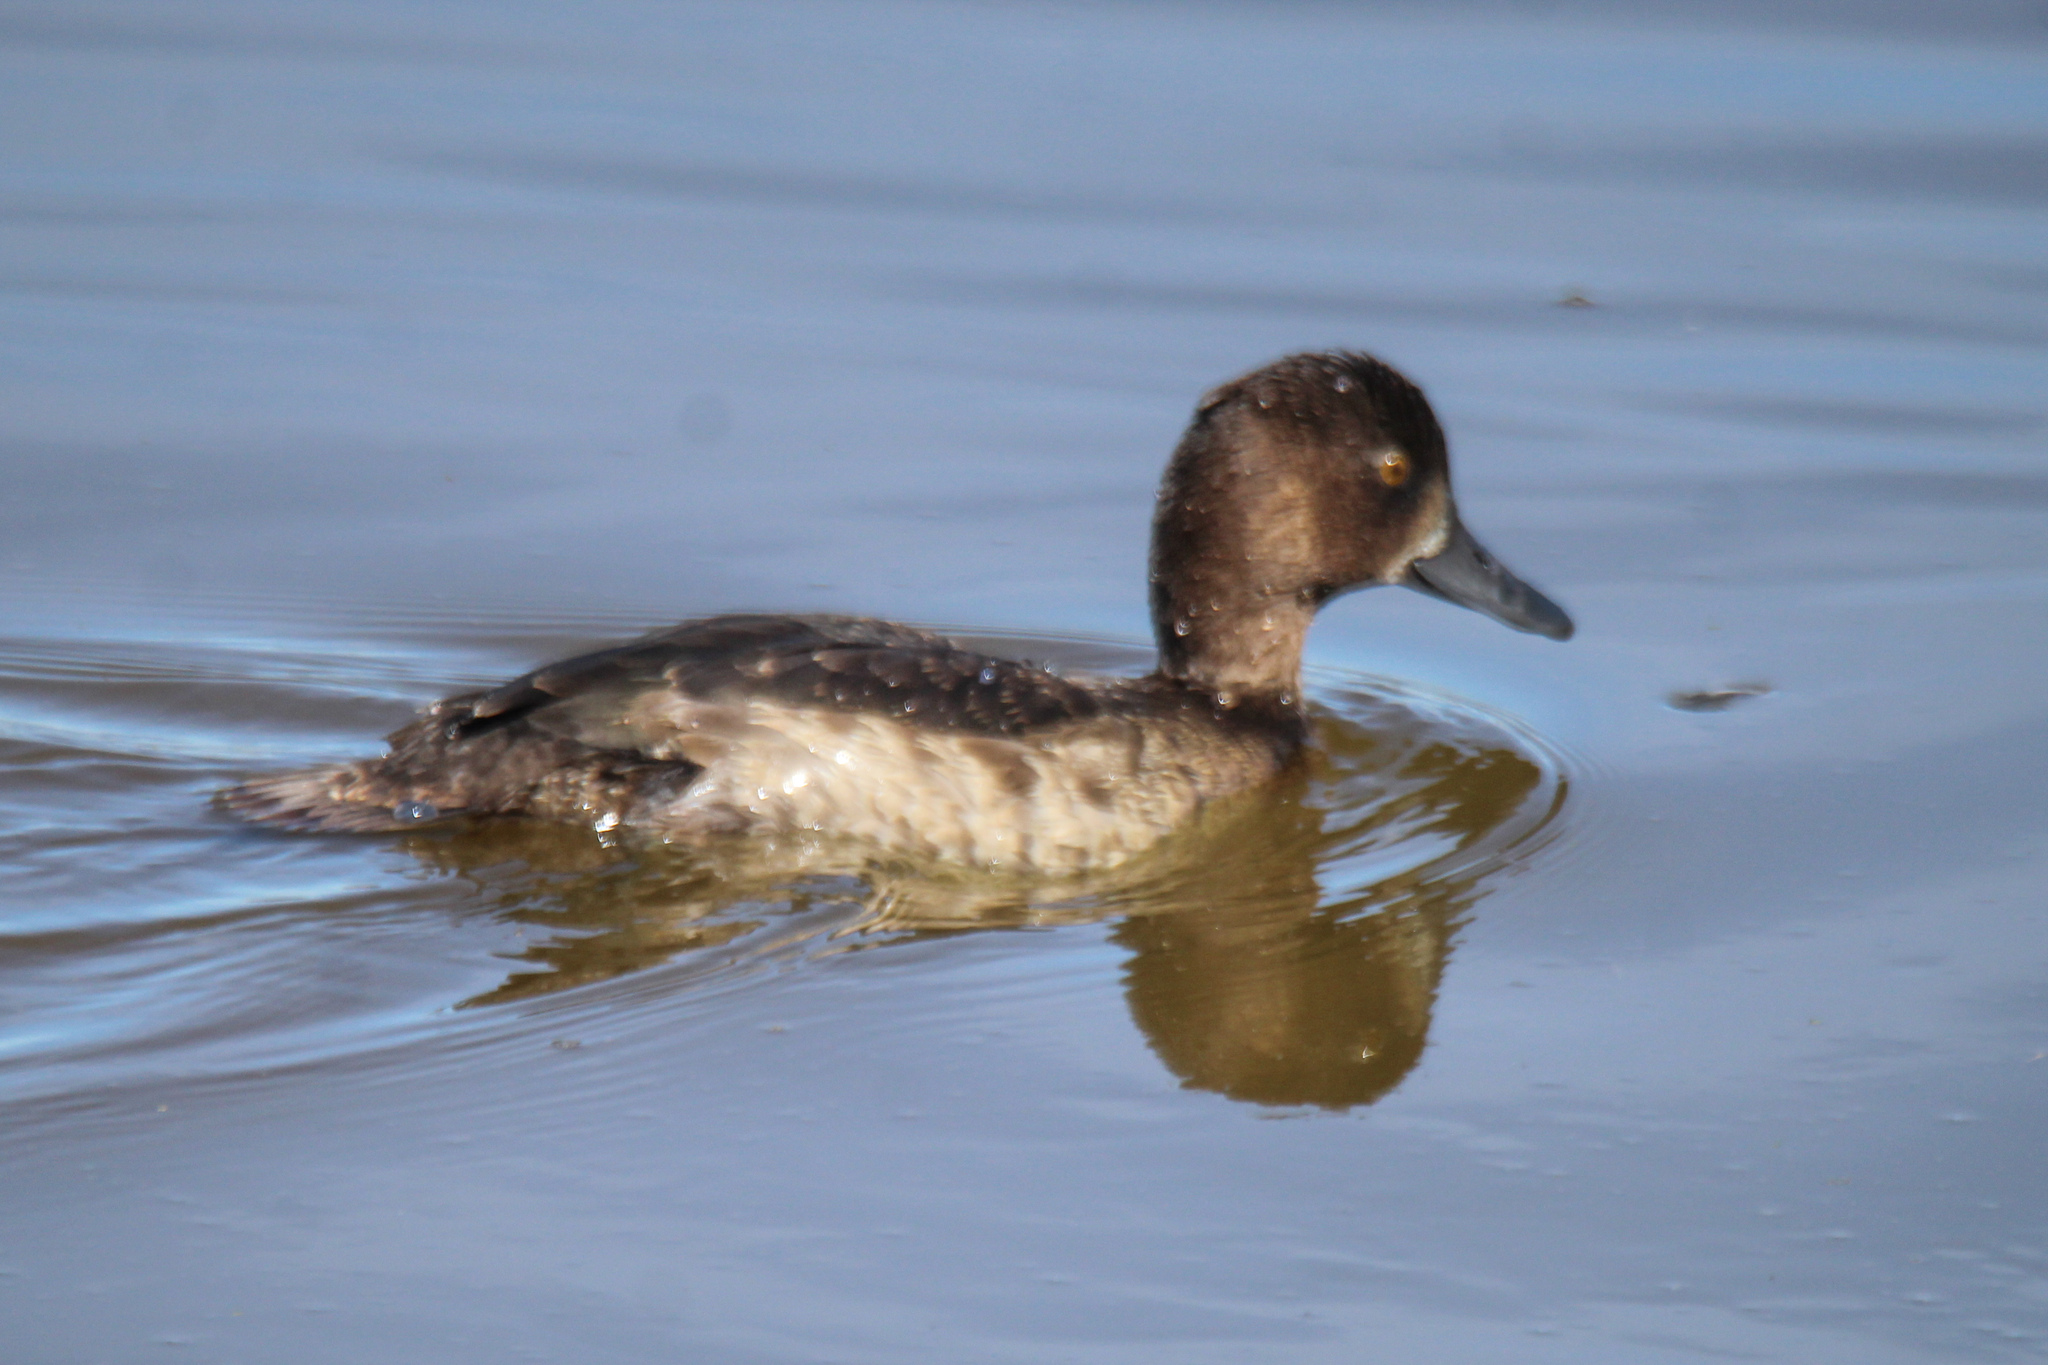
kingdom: Animalia
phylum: Chordata
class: Aves
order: Anseriformes
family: Anatidae
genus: Aythya
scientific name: Aythya fuligula
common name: Tufted duck
